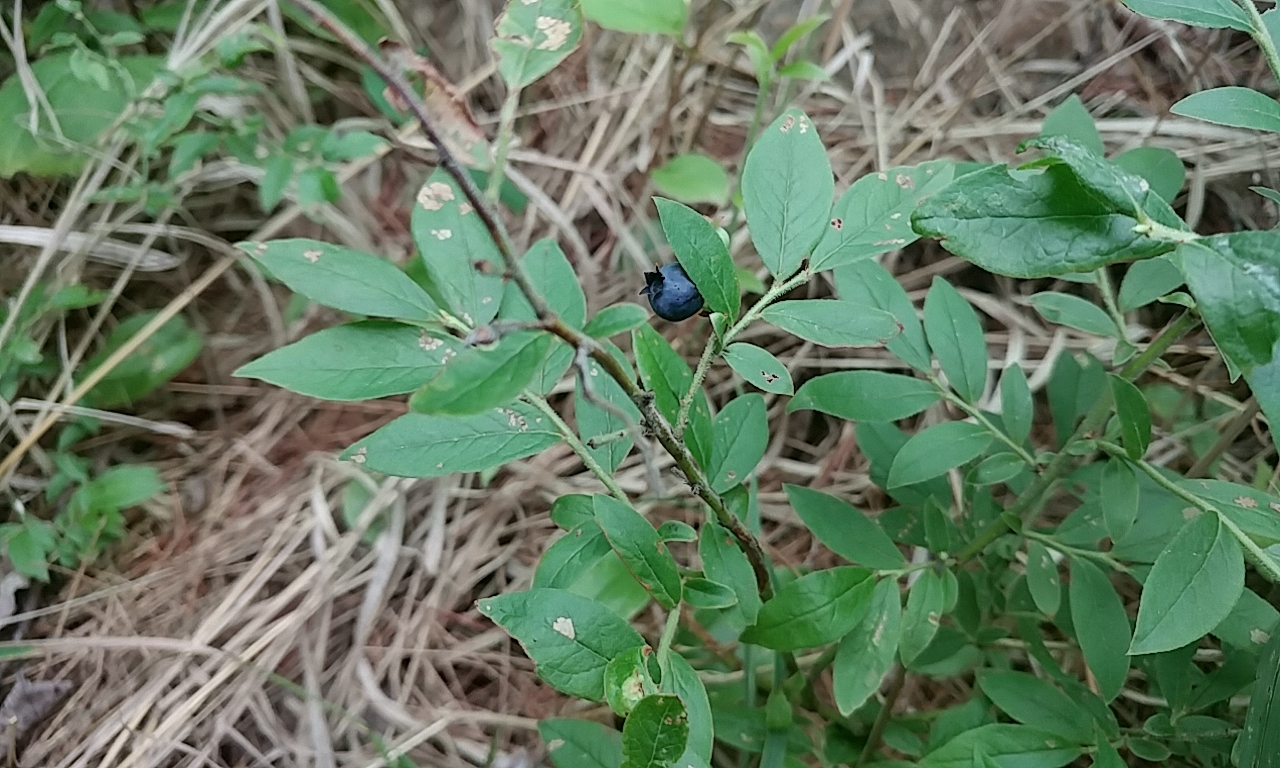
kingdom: Plantae
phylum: Tracheophyta
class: Magnoliopsida
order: Ericales
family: Ericaceae
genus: Vaccinium
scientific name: Vaccinium myrtilloides
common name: Canada blueberry
